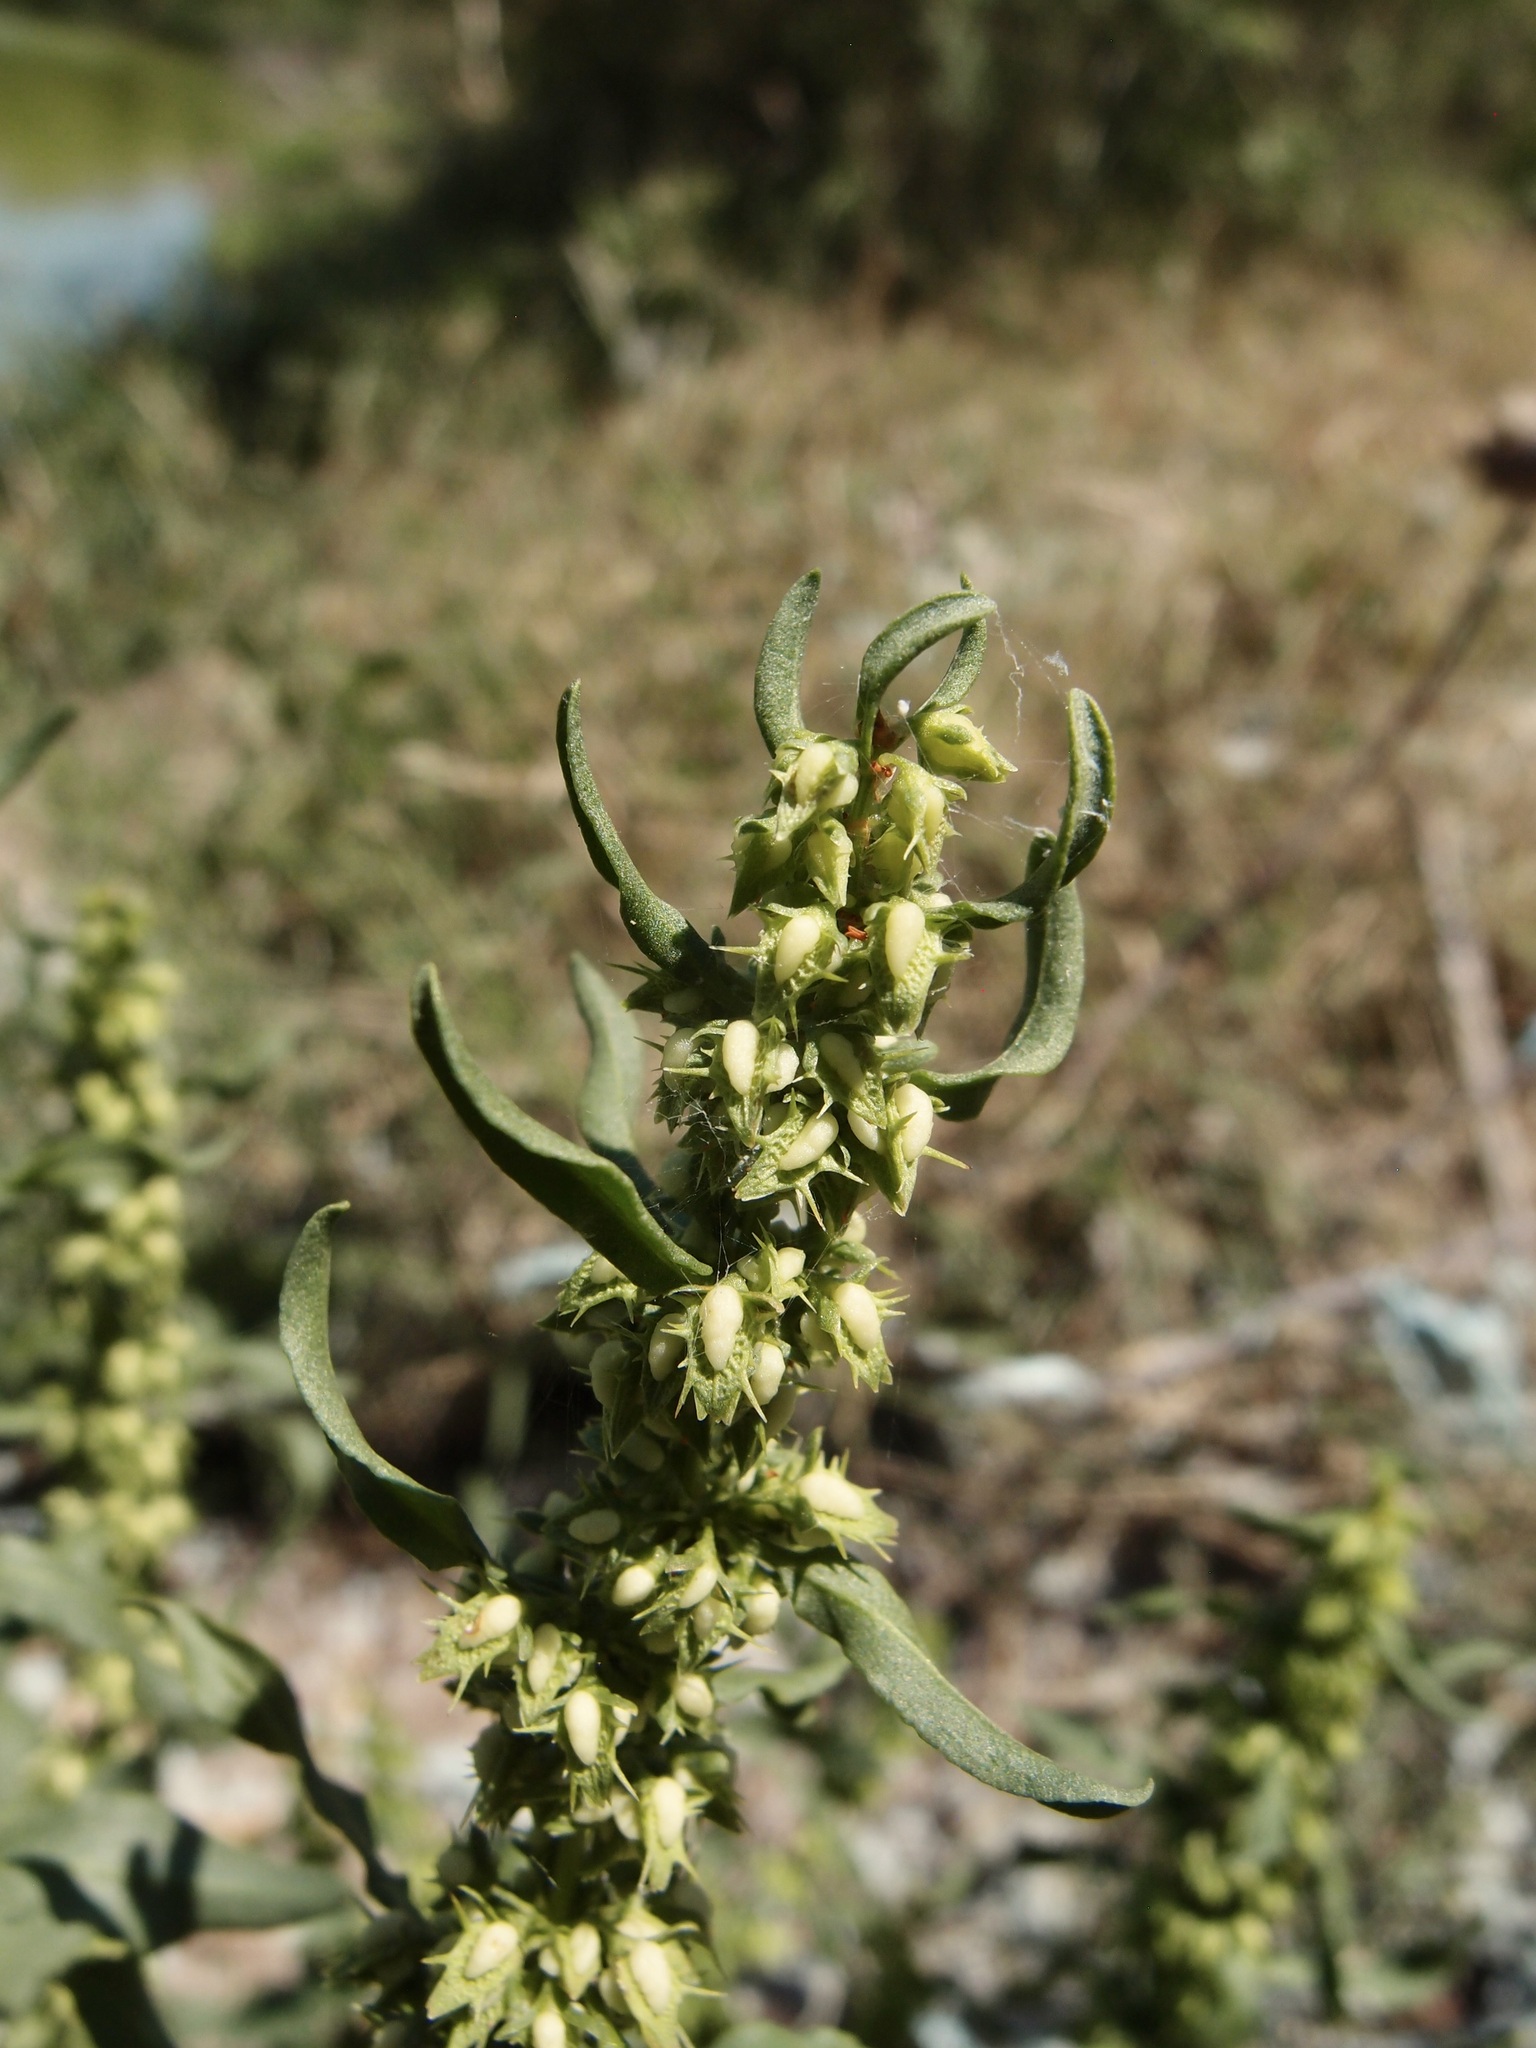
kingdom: Plantae
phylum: Tracheophyta
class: Magnoliopsida
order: Caryophyllales
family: Polygonaceae
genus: Rumex
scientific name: Rumex inconspicuus
